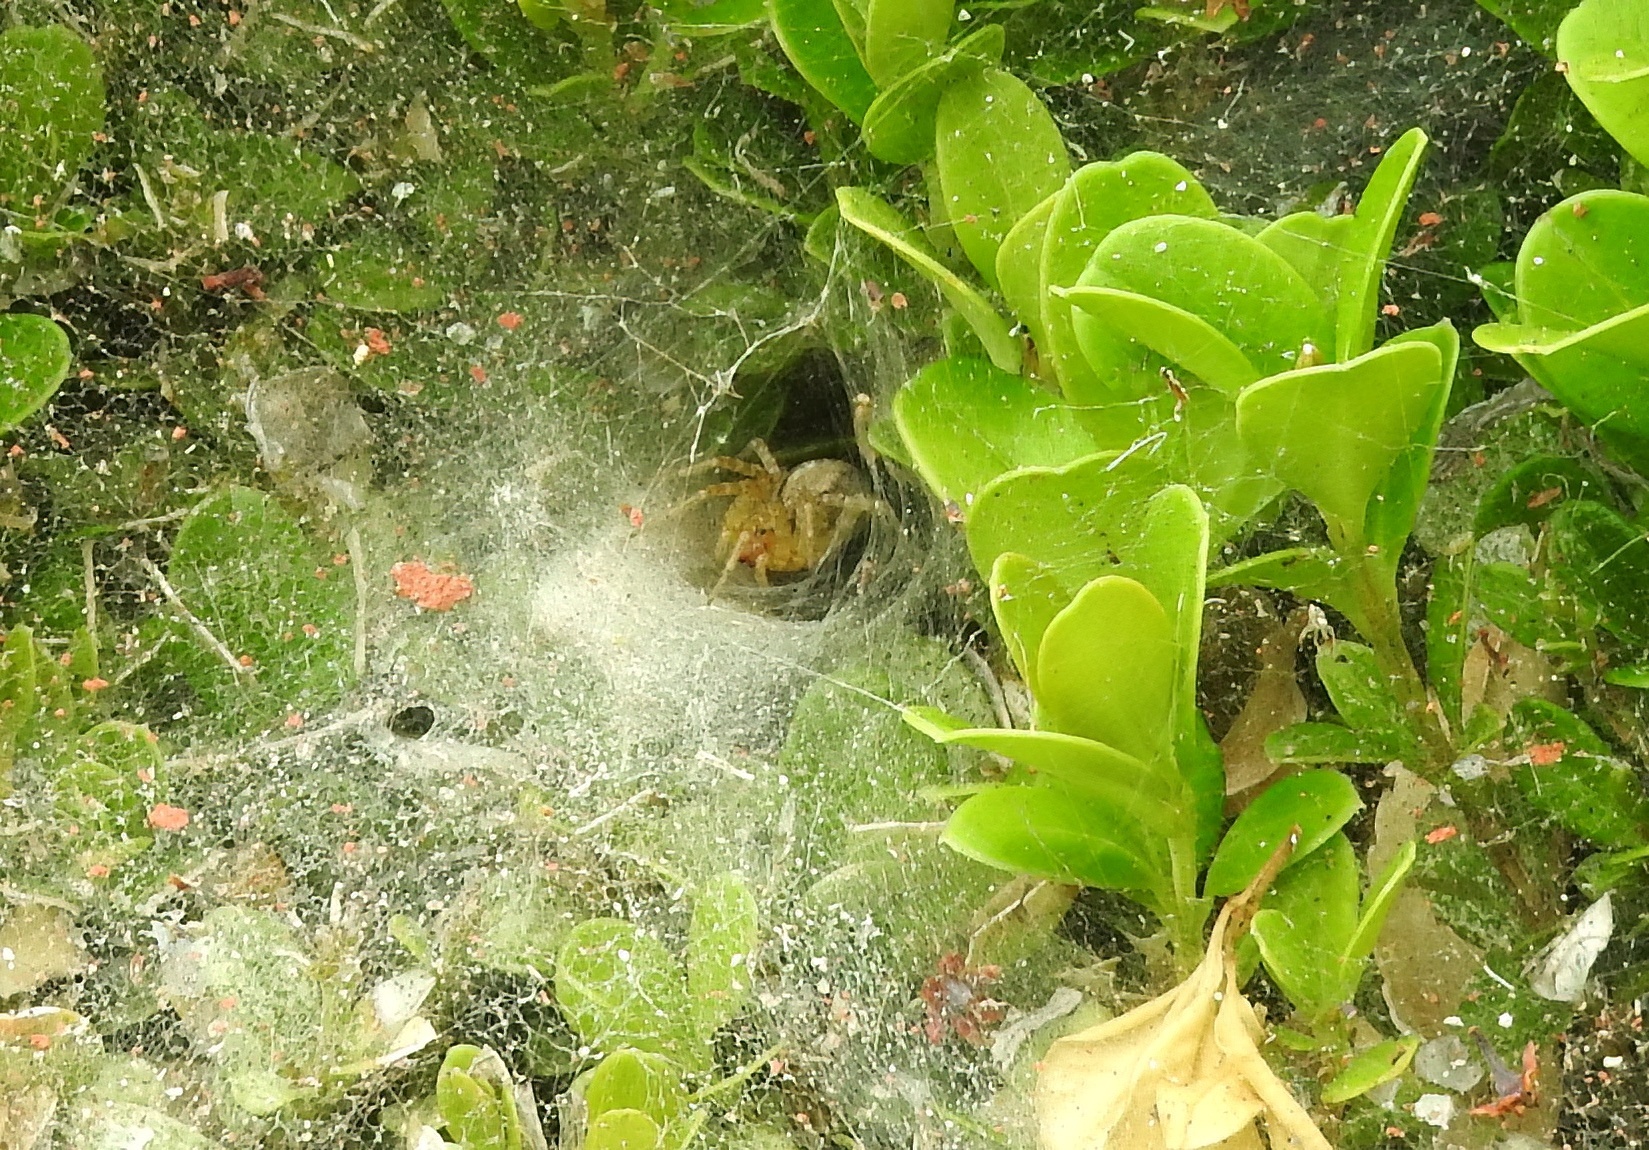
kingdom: Animalia
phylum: Arthropoda
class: Arachnida
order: Araneae
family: Agelenidae
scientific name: Agelenidae
